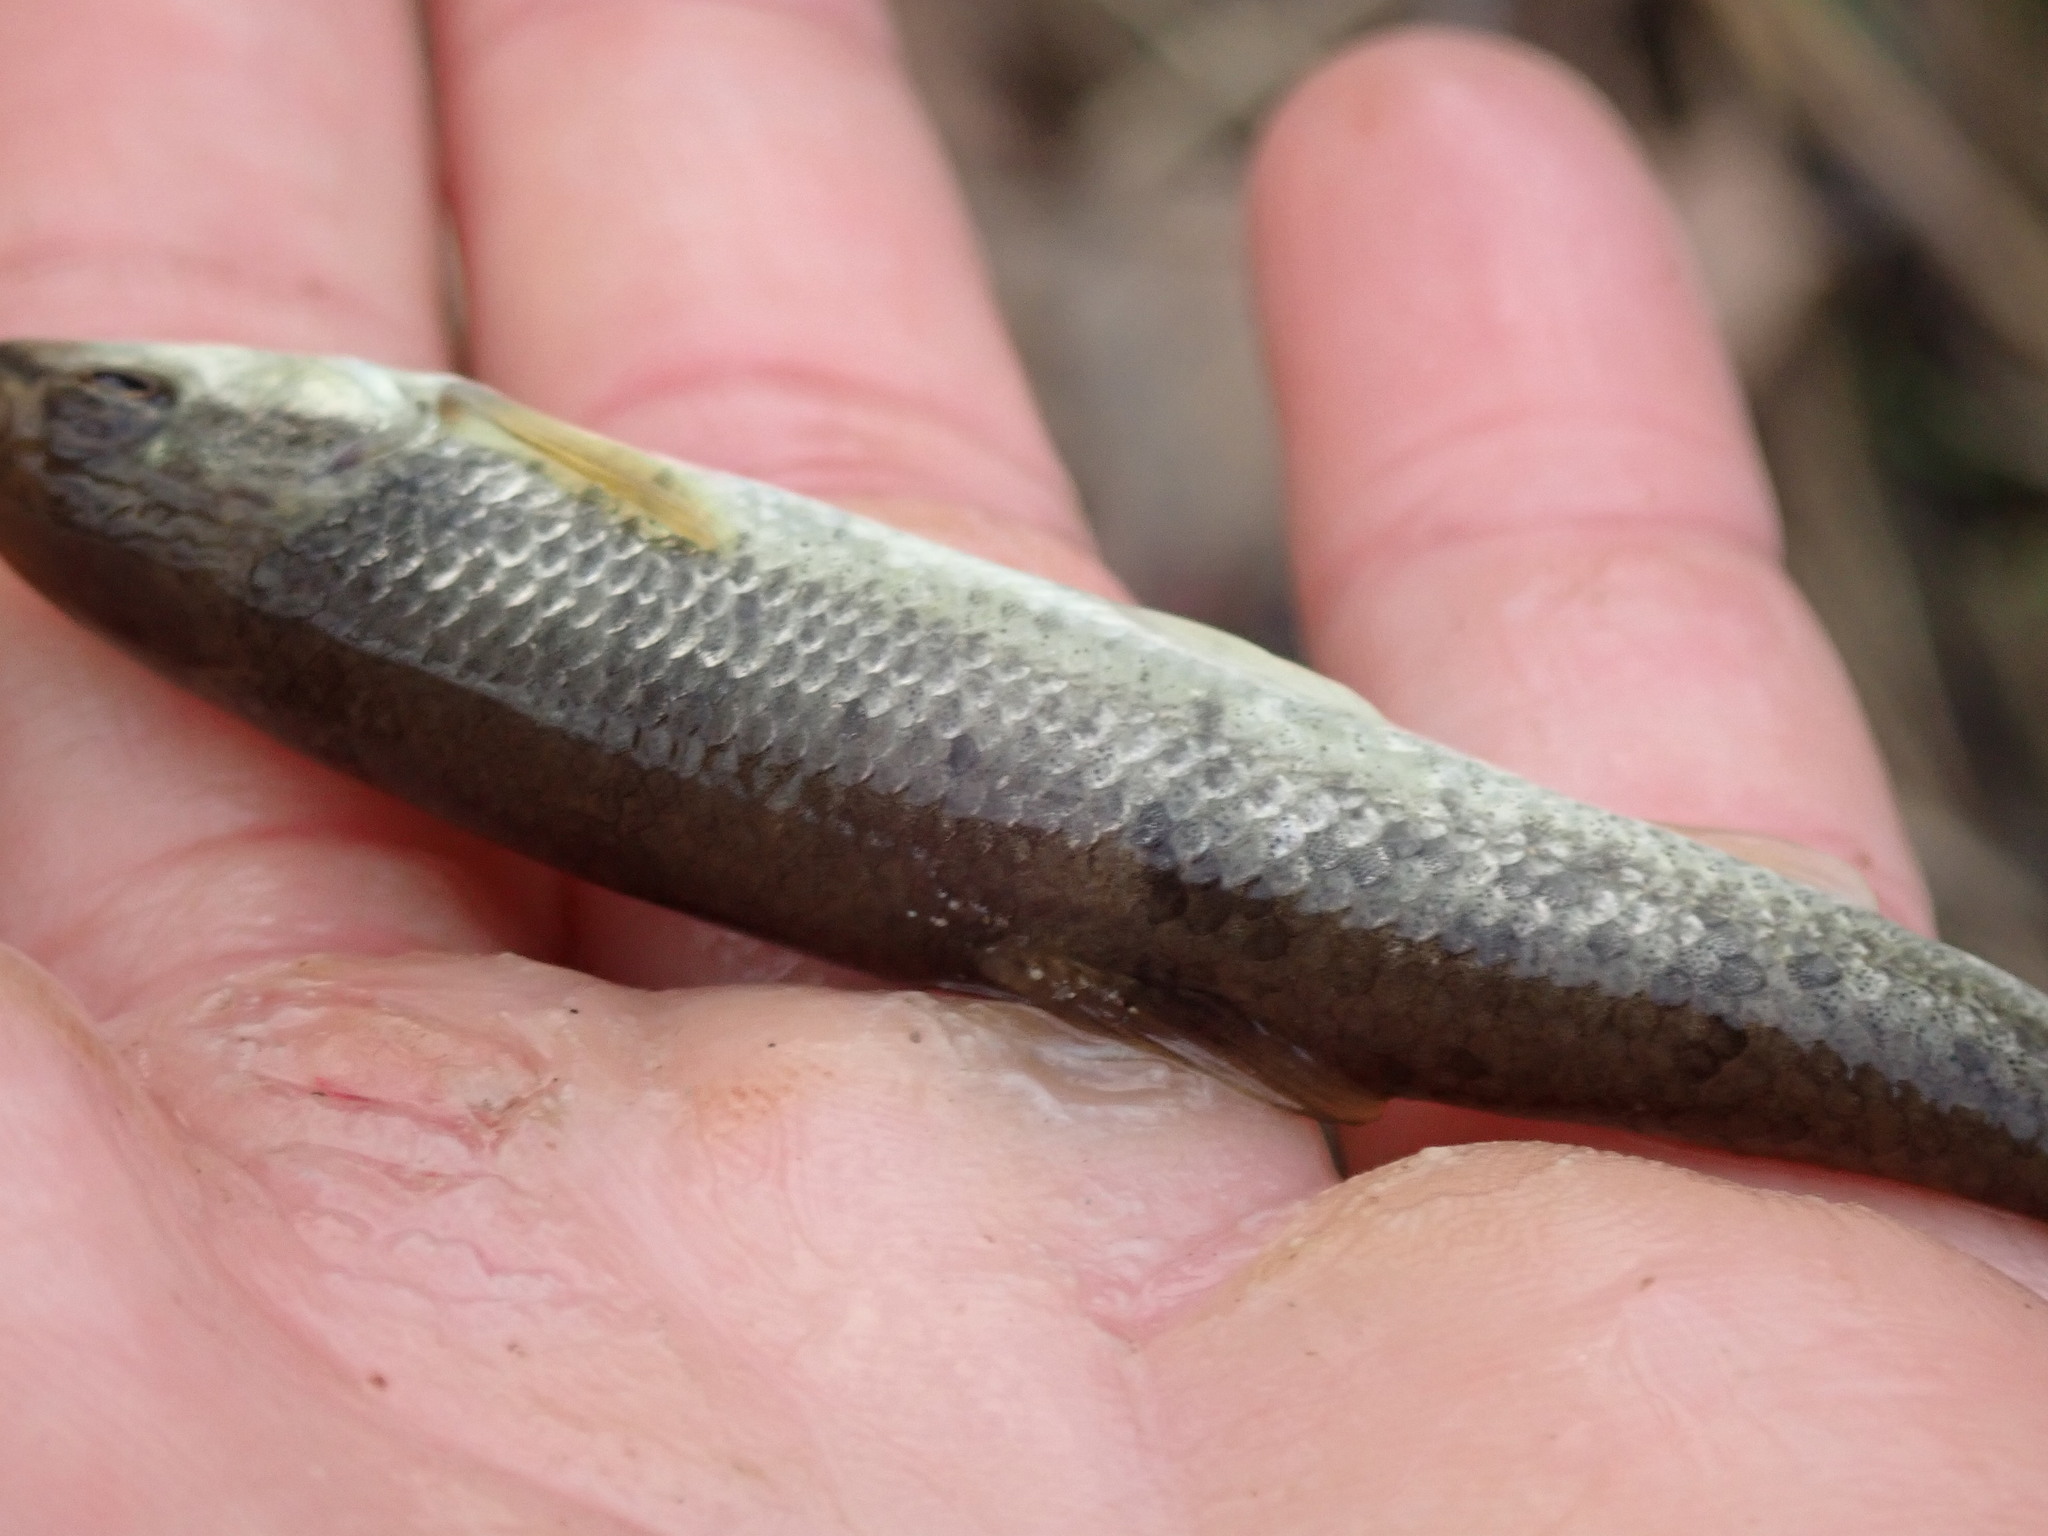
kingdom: Animalia
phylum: Chordata
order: Cypriniformes
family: Cyprinidae
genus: Campostoma
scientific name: Campostoma anomalum
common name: Central stoneroller
